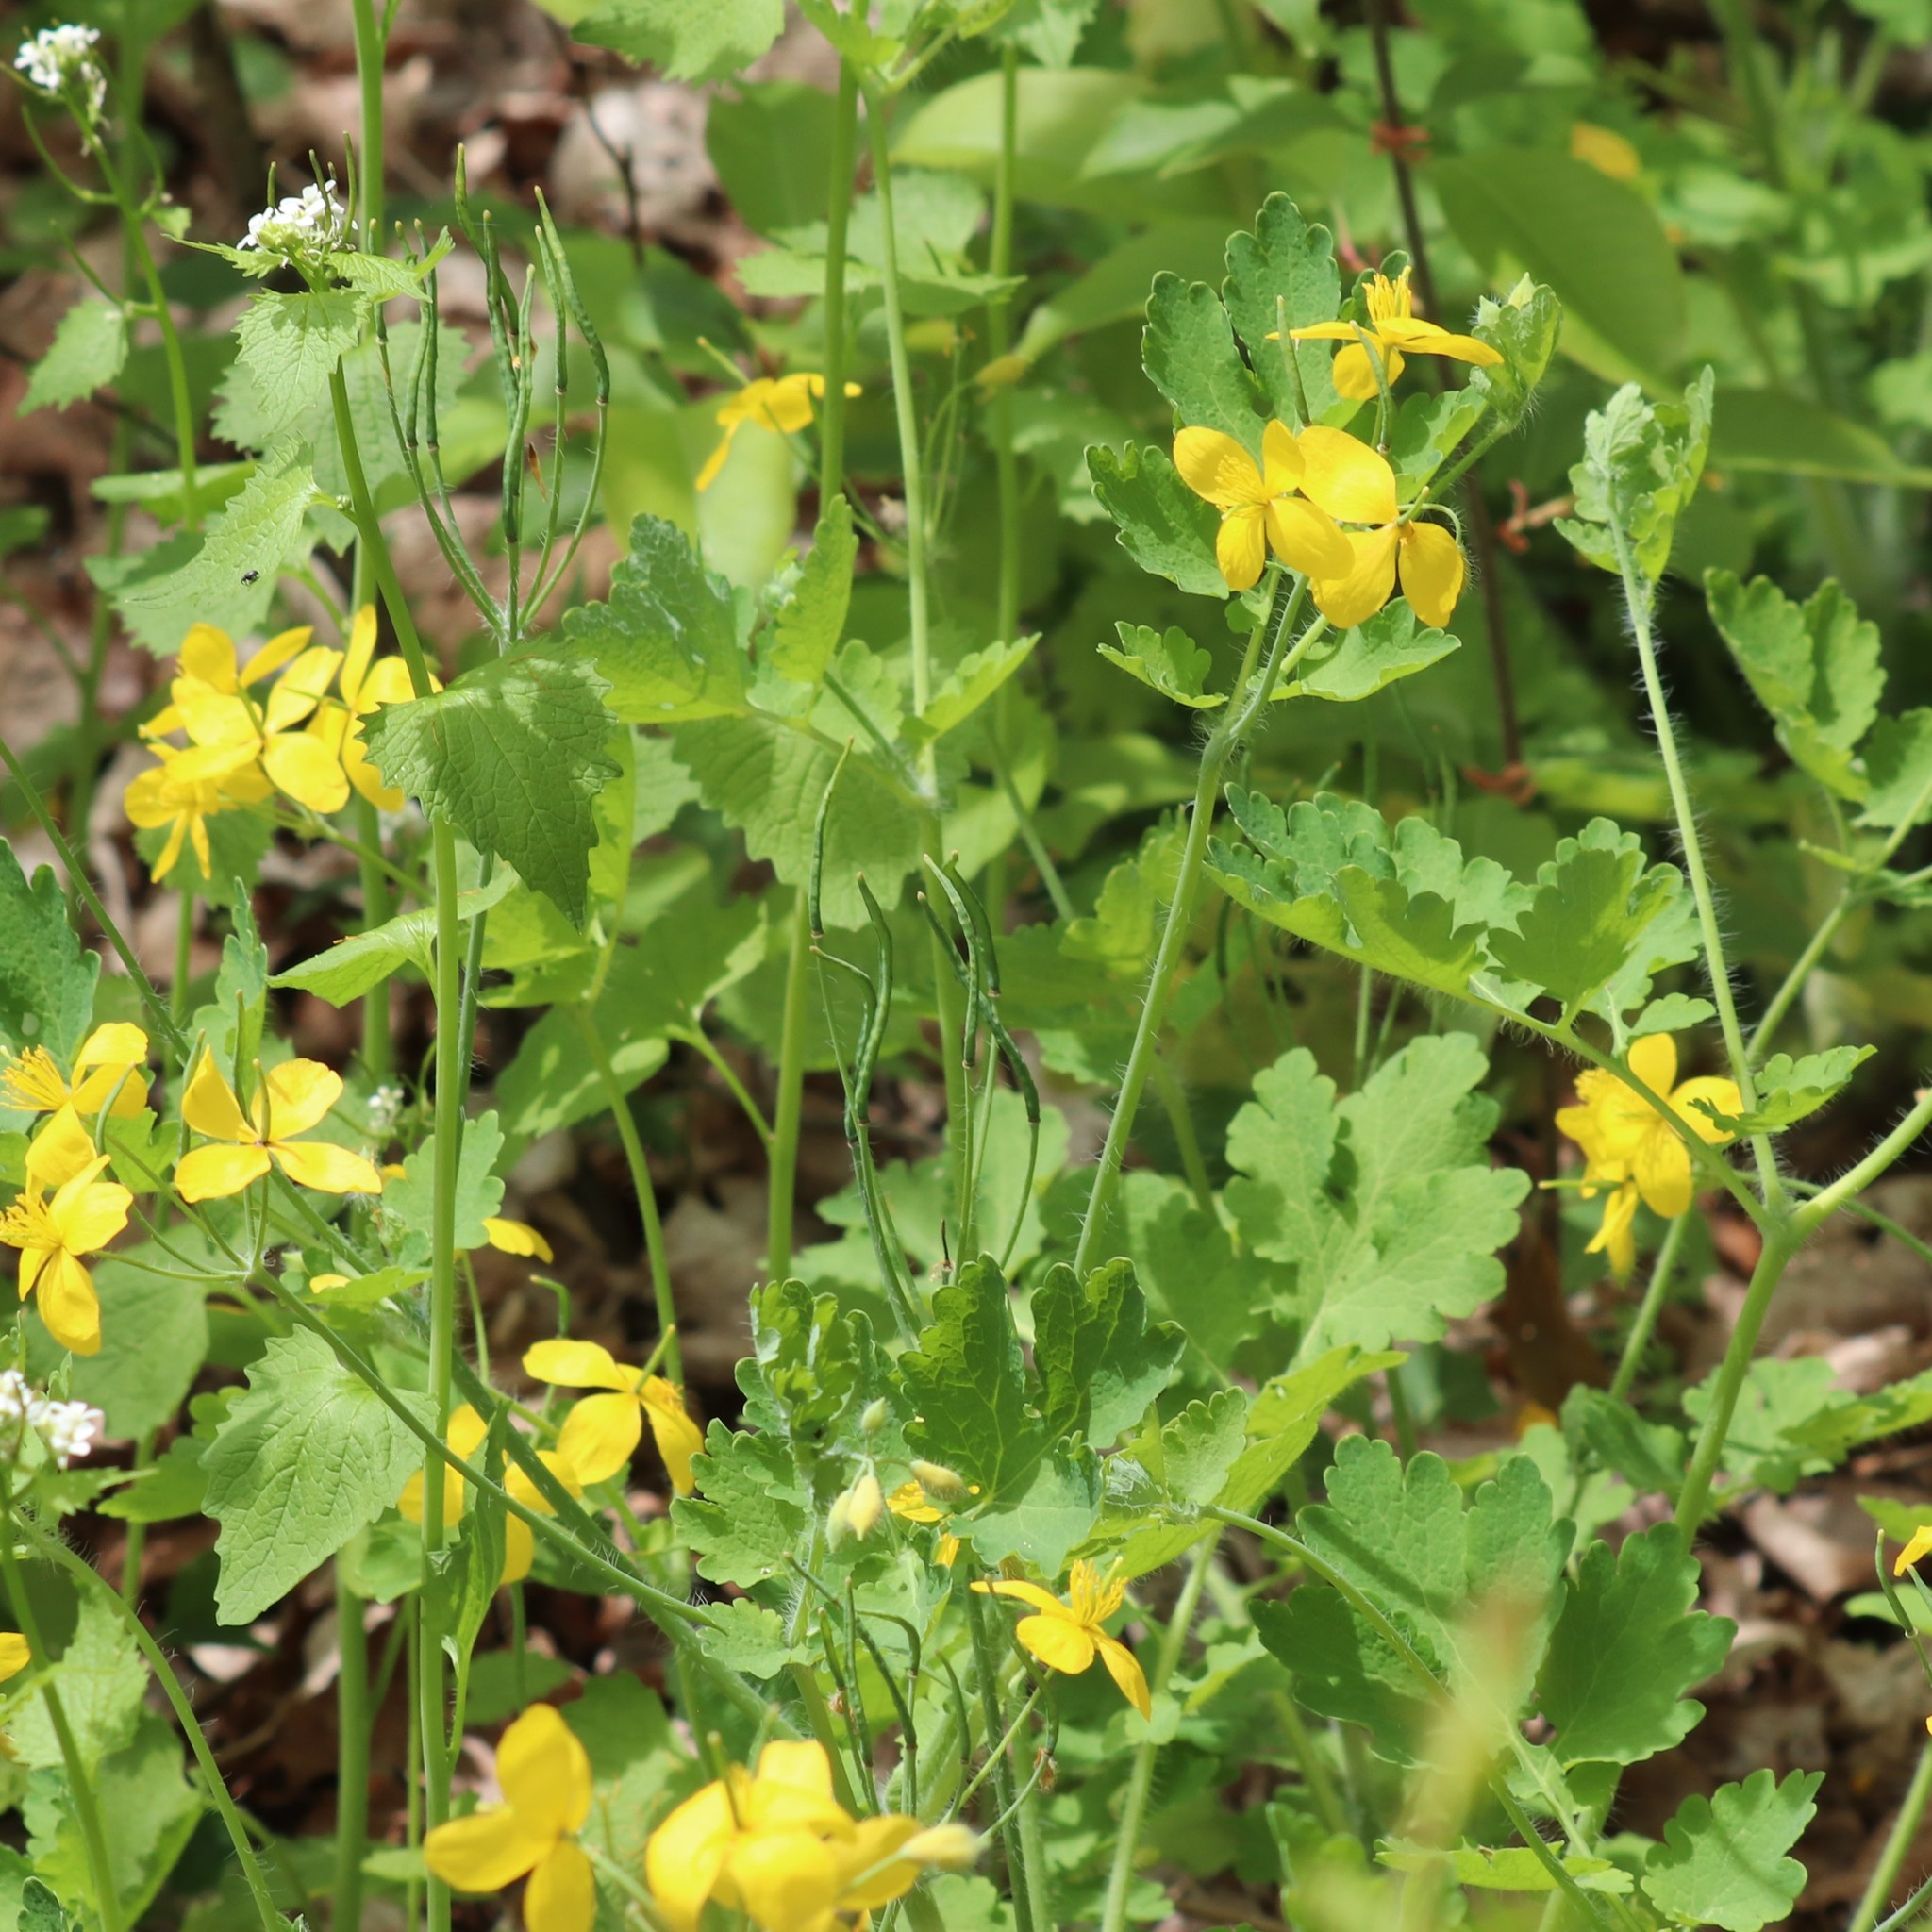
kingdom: Plantae
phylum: Tracheophyta
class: Magnoliopsida
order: Ranunculales
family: Papaveraceae
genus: Chelidonium
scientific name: Chelidonium majus
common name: Greater celandine
